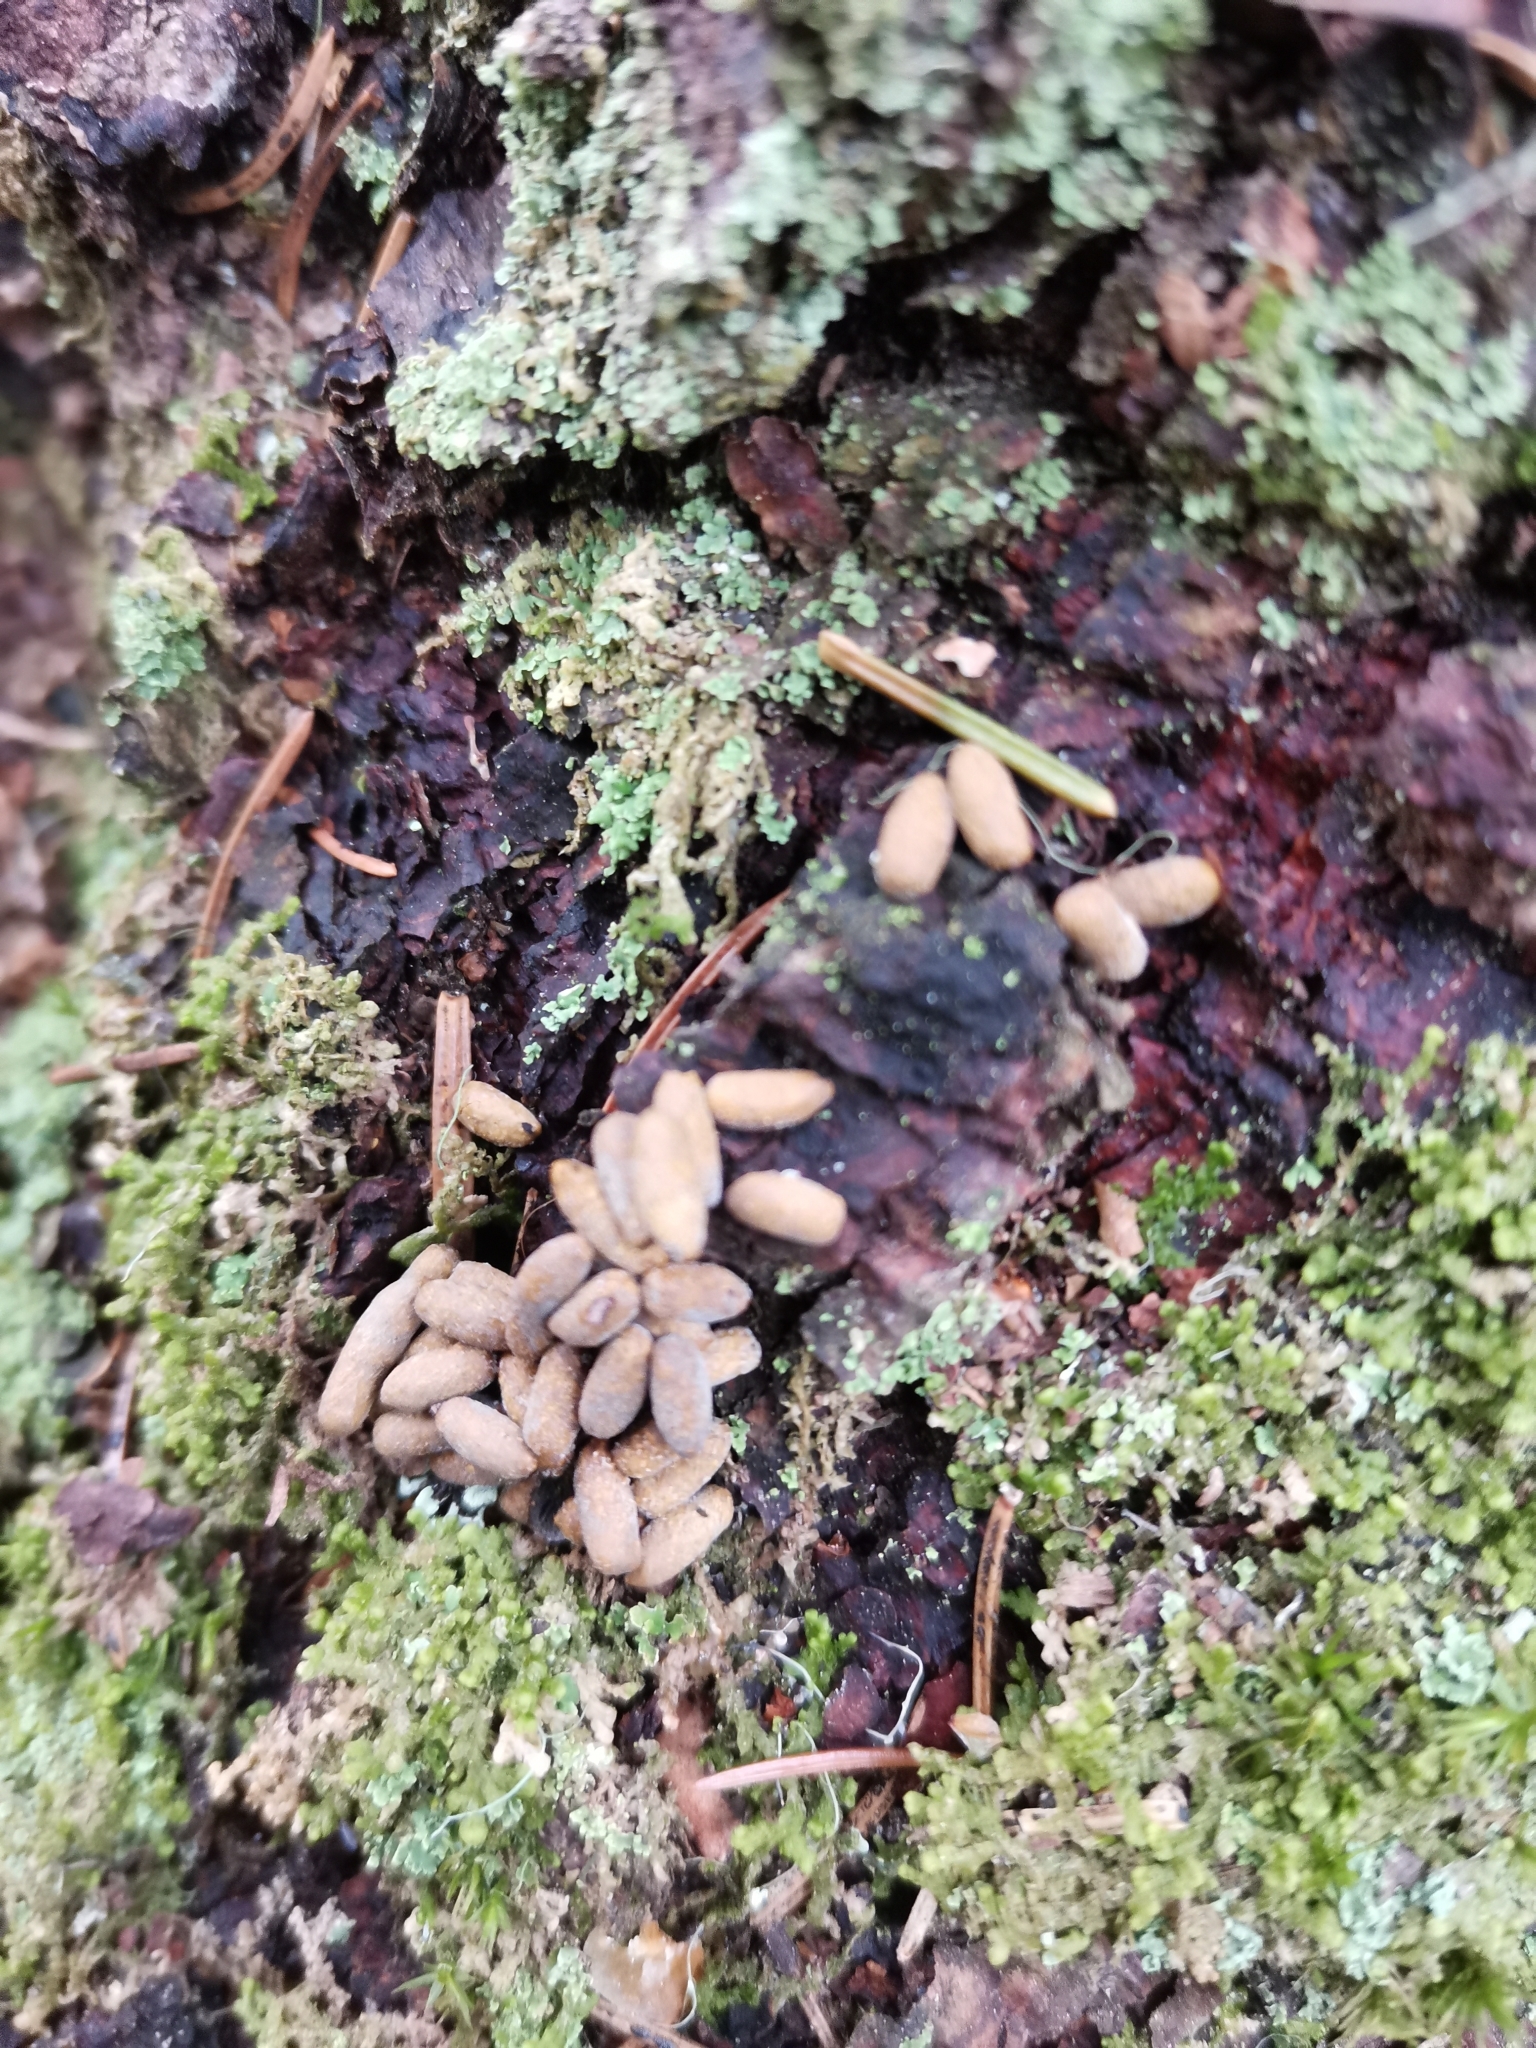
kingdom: Animalia
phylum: Chordata
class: Mammalia
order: Rodentia
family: Sciuridae
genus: Pteromys
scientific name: Pteromys volans
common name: Siberian flying squirrel
